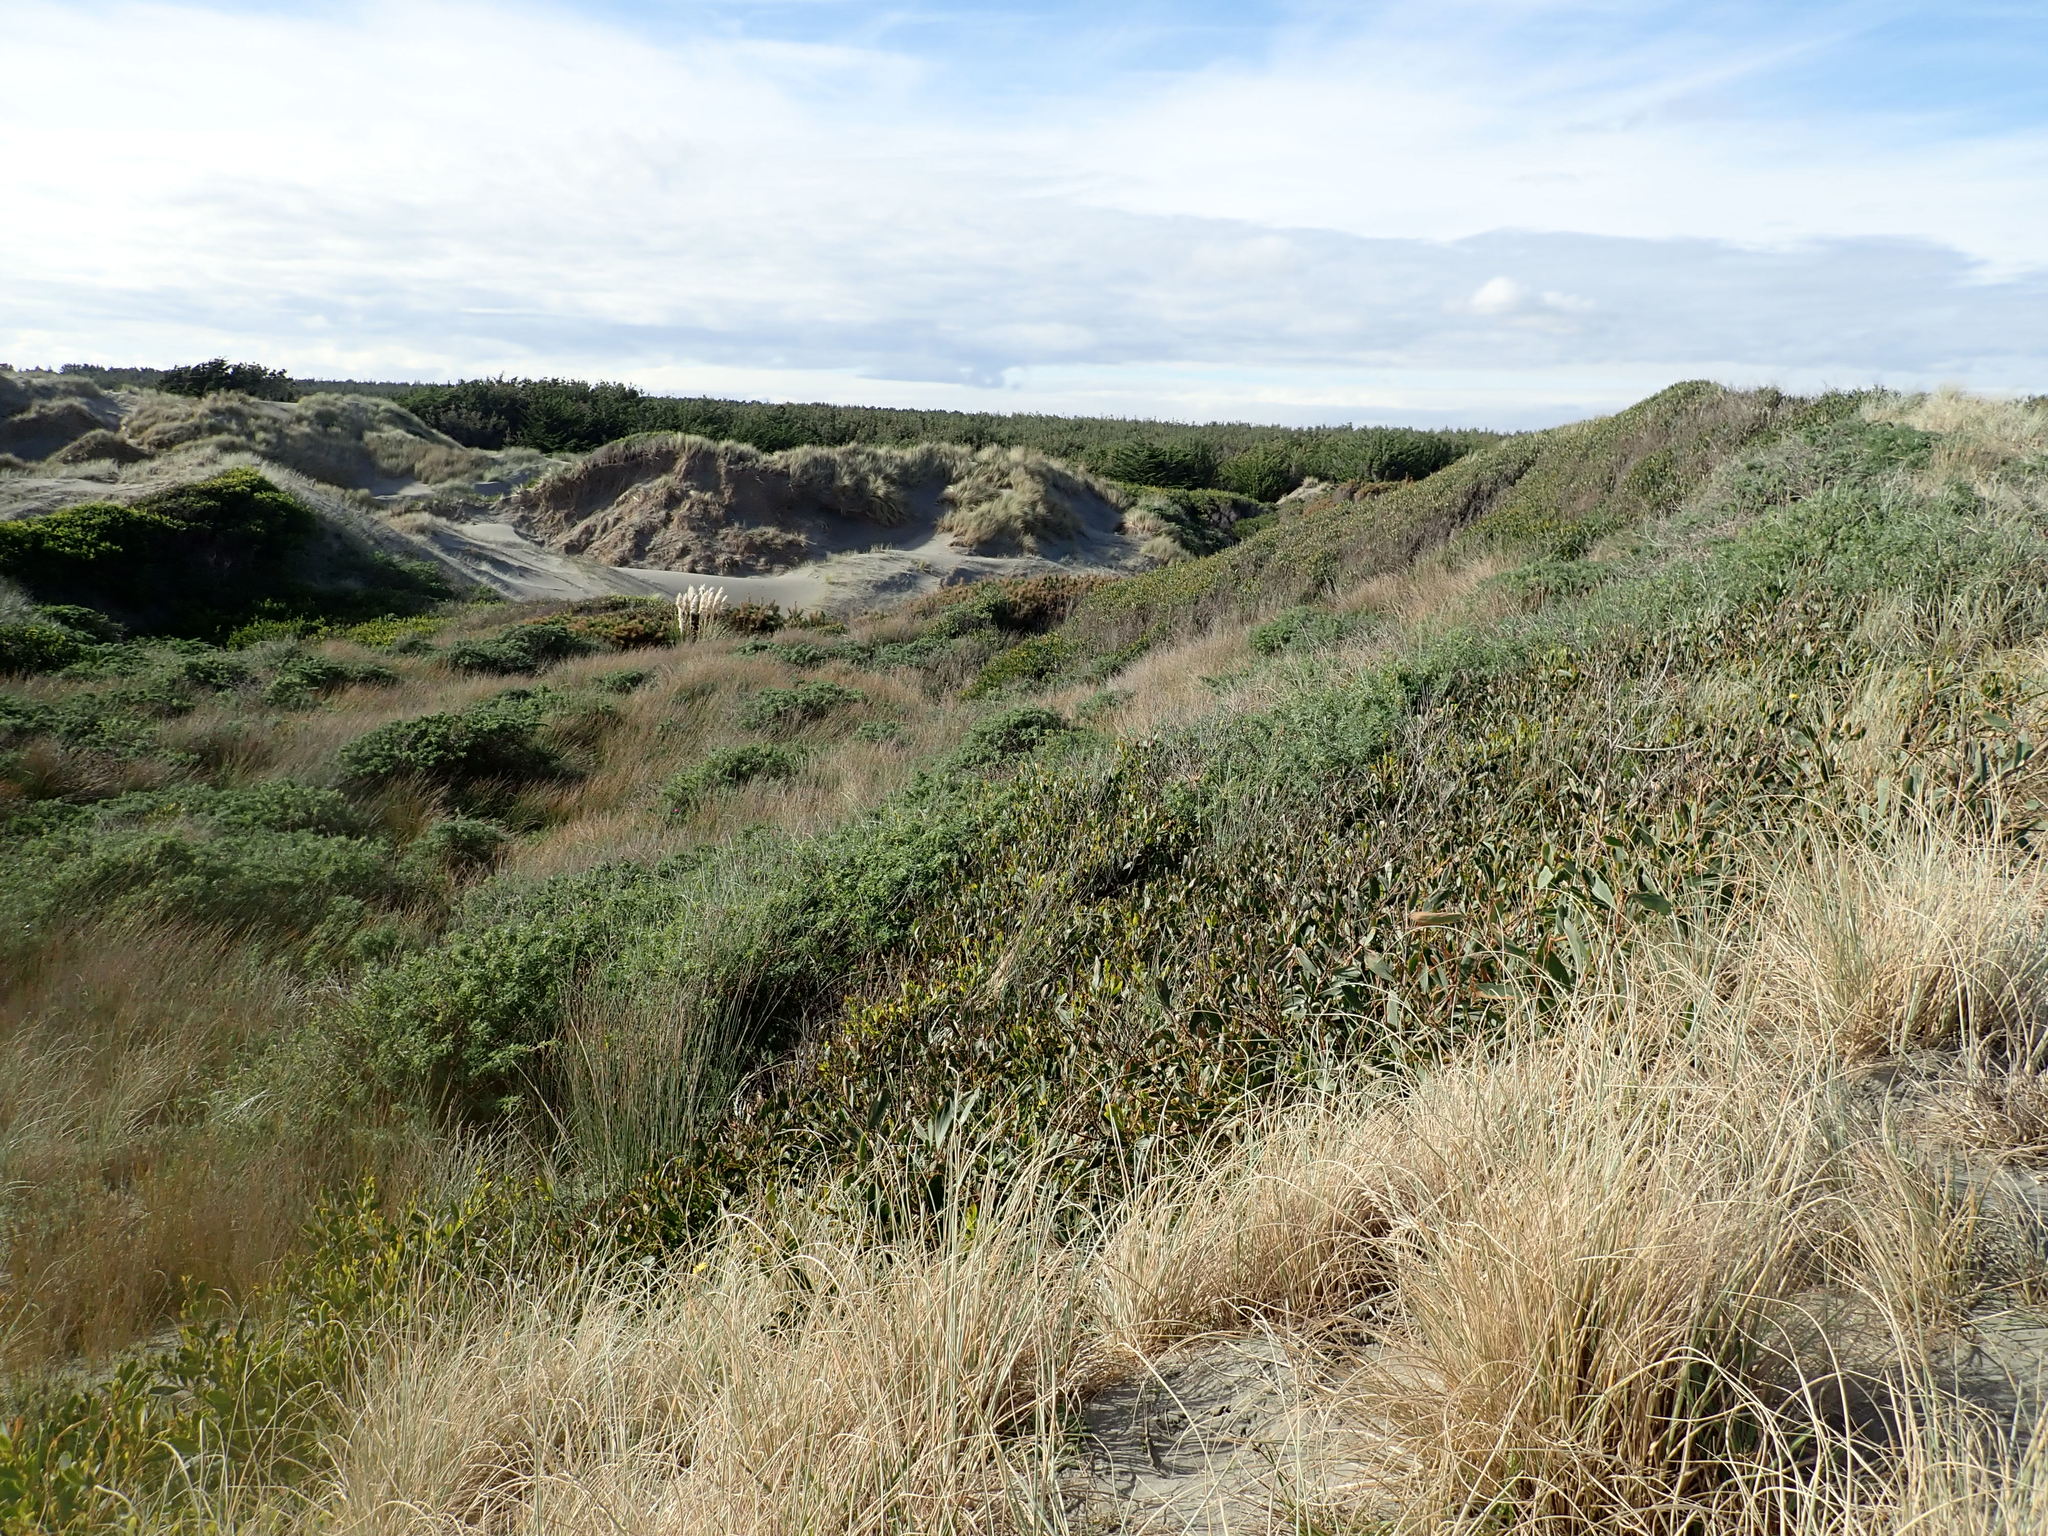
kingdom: Plantae
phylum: Tracheophyta
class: Pinopsida
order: Pinales
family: Pinaceae
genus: Pinus
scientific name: Pinus radiata
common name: Monterey pine
